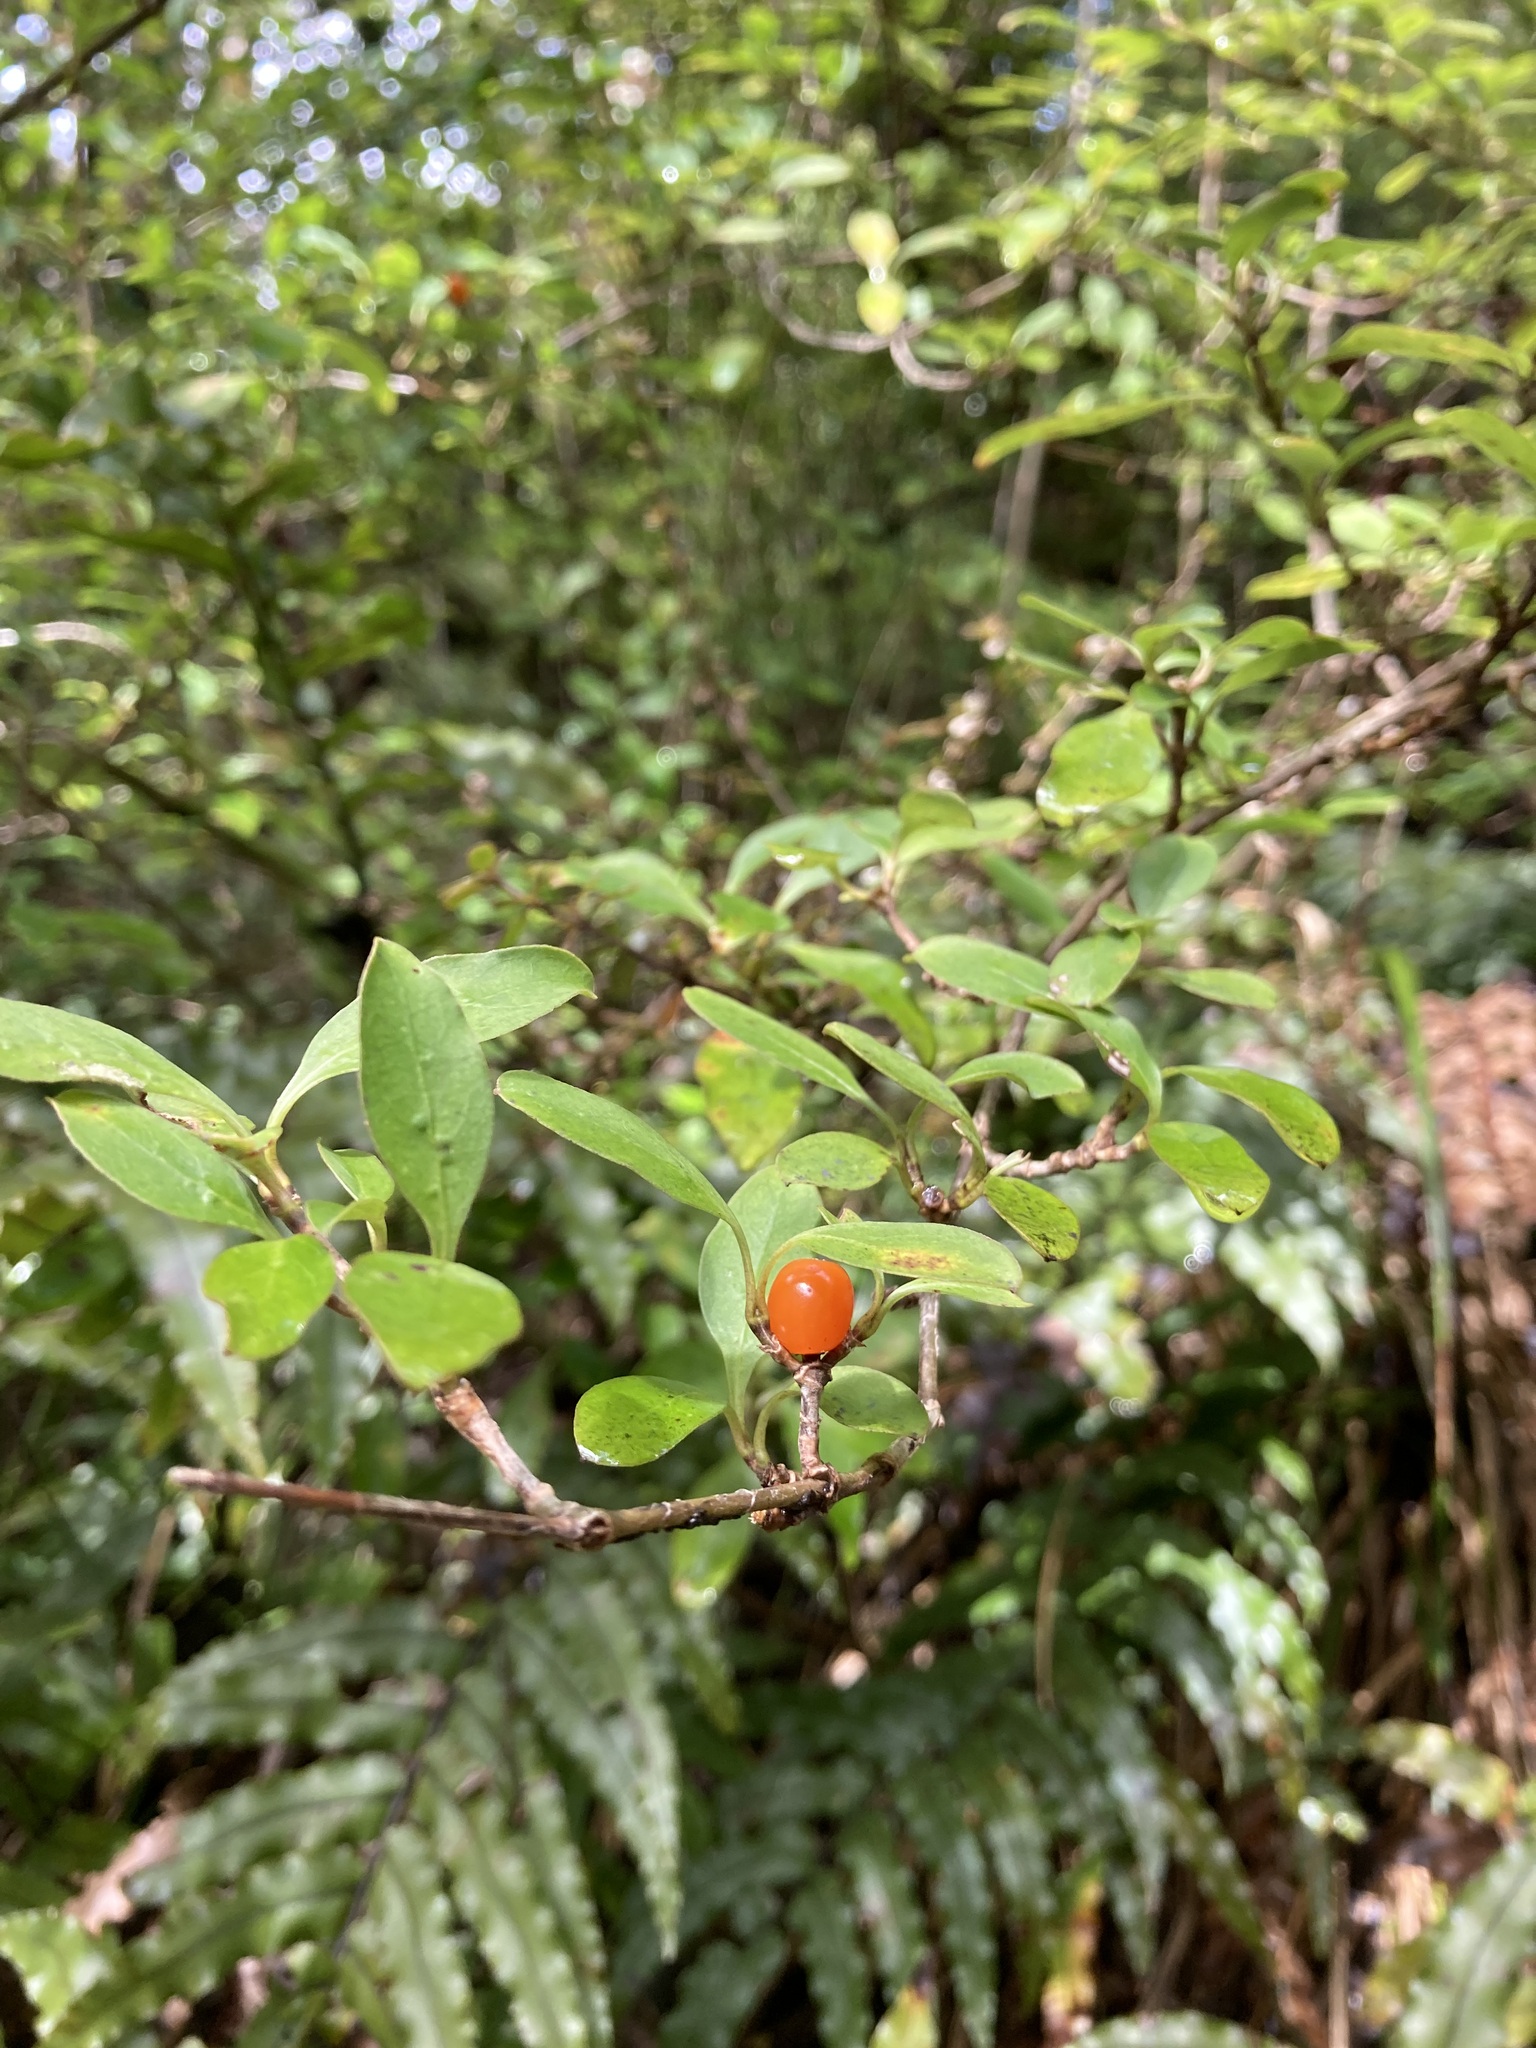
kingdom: Plantae
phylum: Tracheophyta
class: Magnoliopsida
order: Gentianales
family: Rubiaceae
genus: Coprosma
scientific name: Coprosma foetidissima
